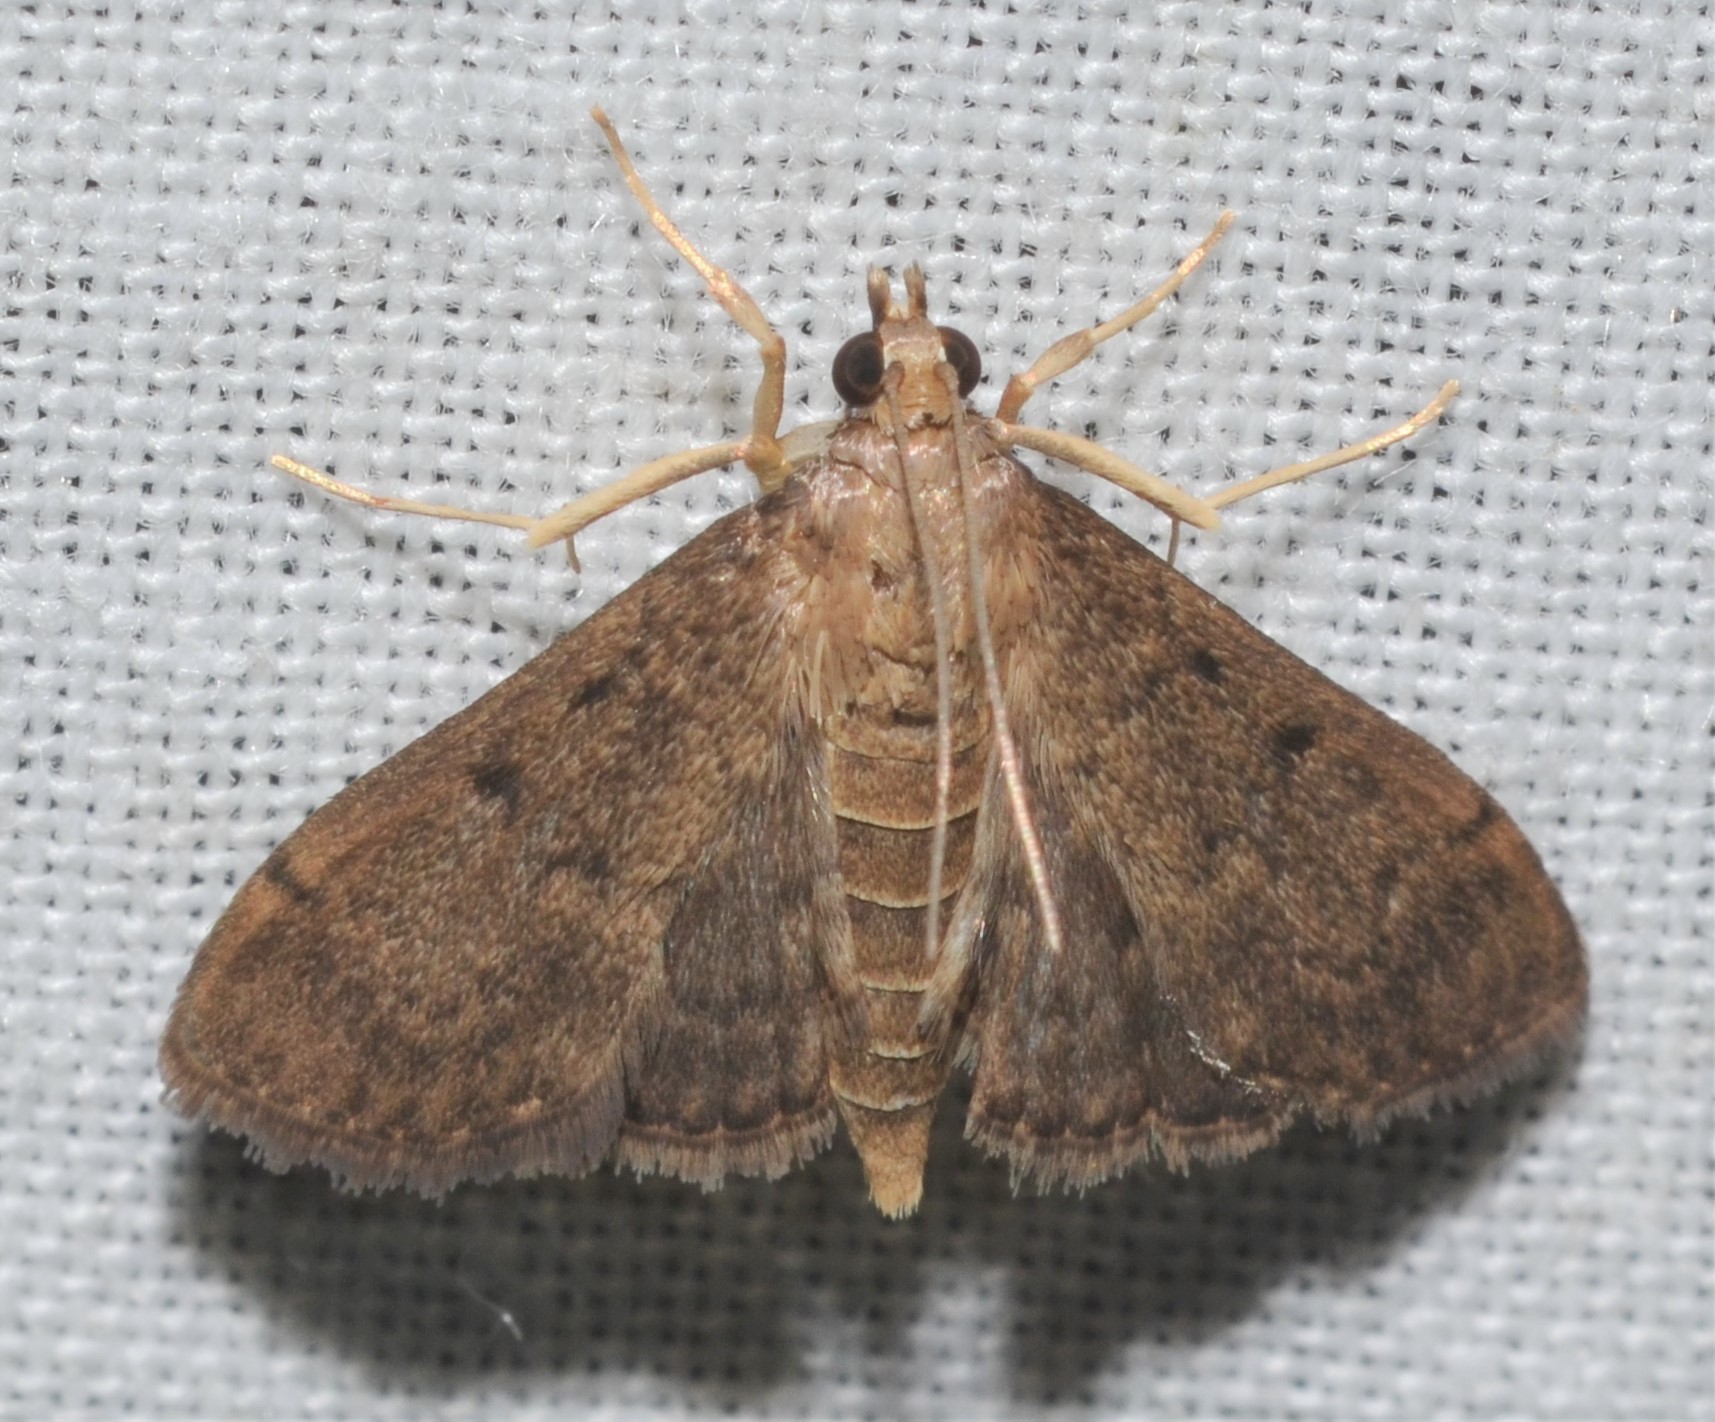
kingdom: Animalia
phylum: Arthropoda
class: Insecta
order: Lepidoptera
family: Crambidae
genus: Herpetogramma
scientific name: Herpetogramma phaeopteralis
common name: Dusky herpetogramma moth
